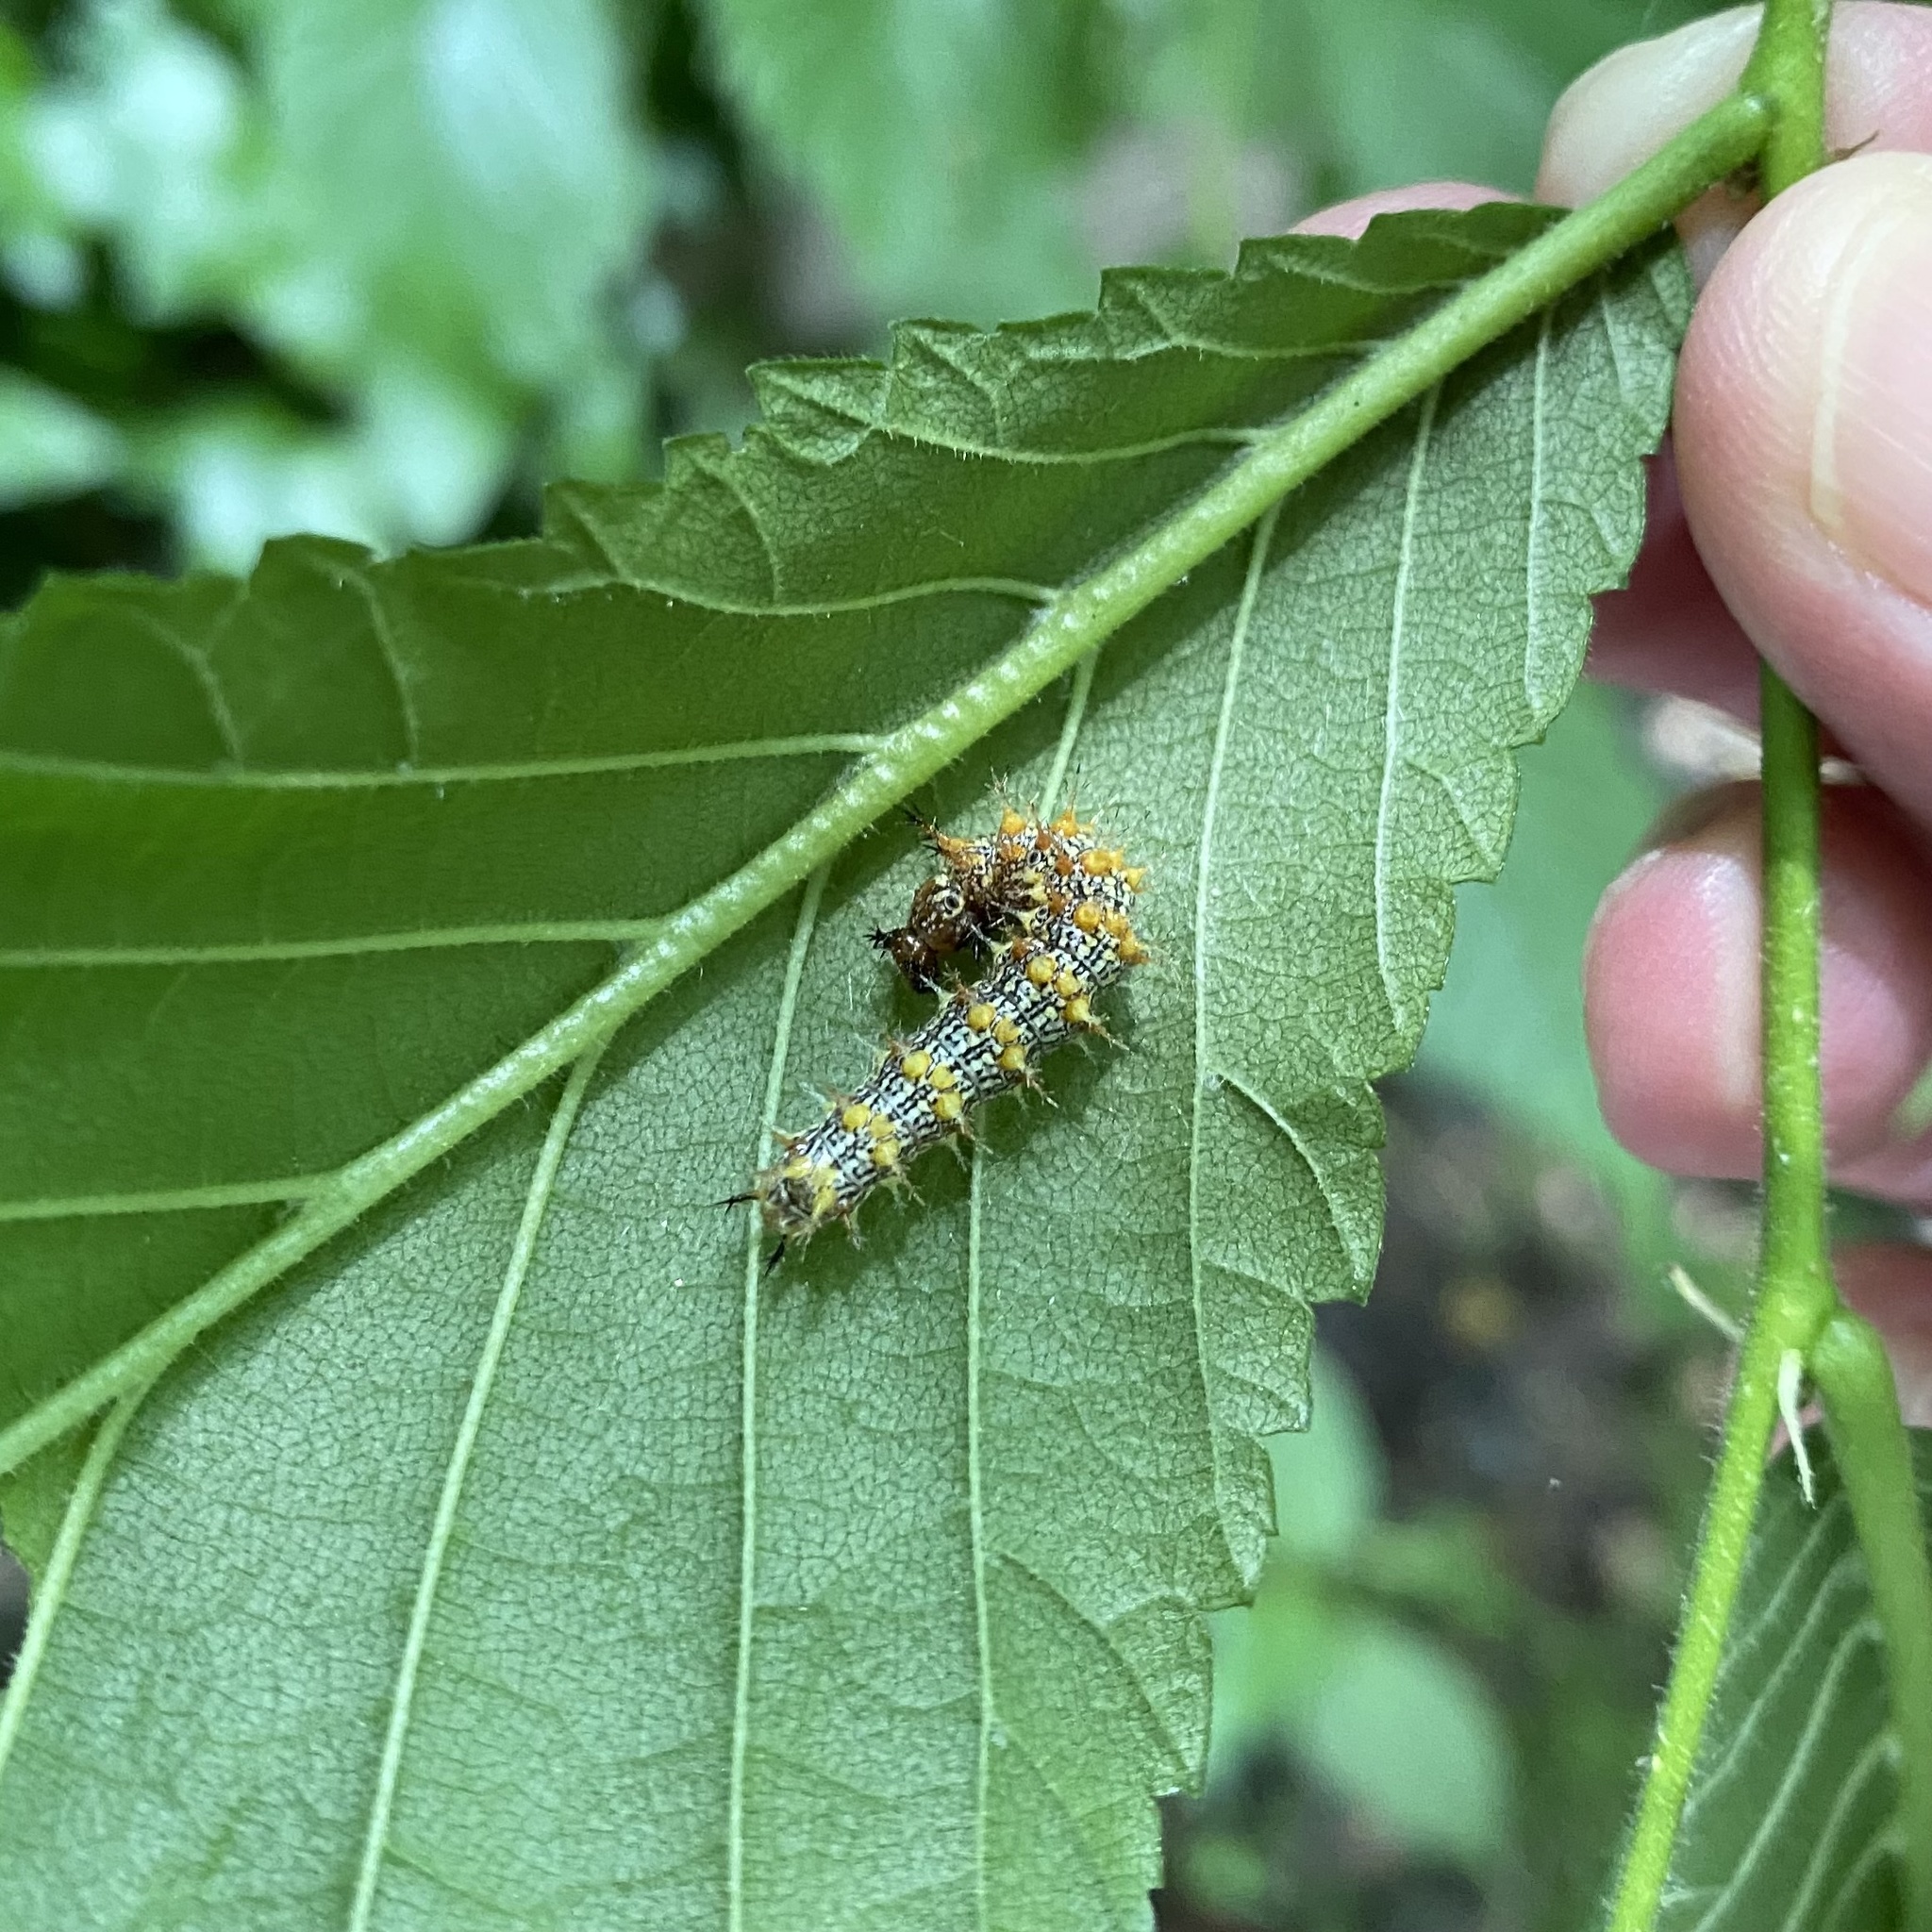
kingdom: Animalia
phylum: Arthropoda
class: Insecta
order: Lepidoptera
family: Nymphalidae
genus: Polygonia
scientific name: Polygonia interrogationis
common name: Question mark
